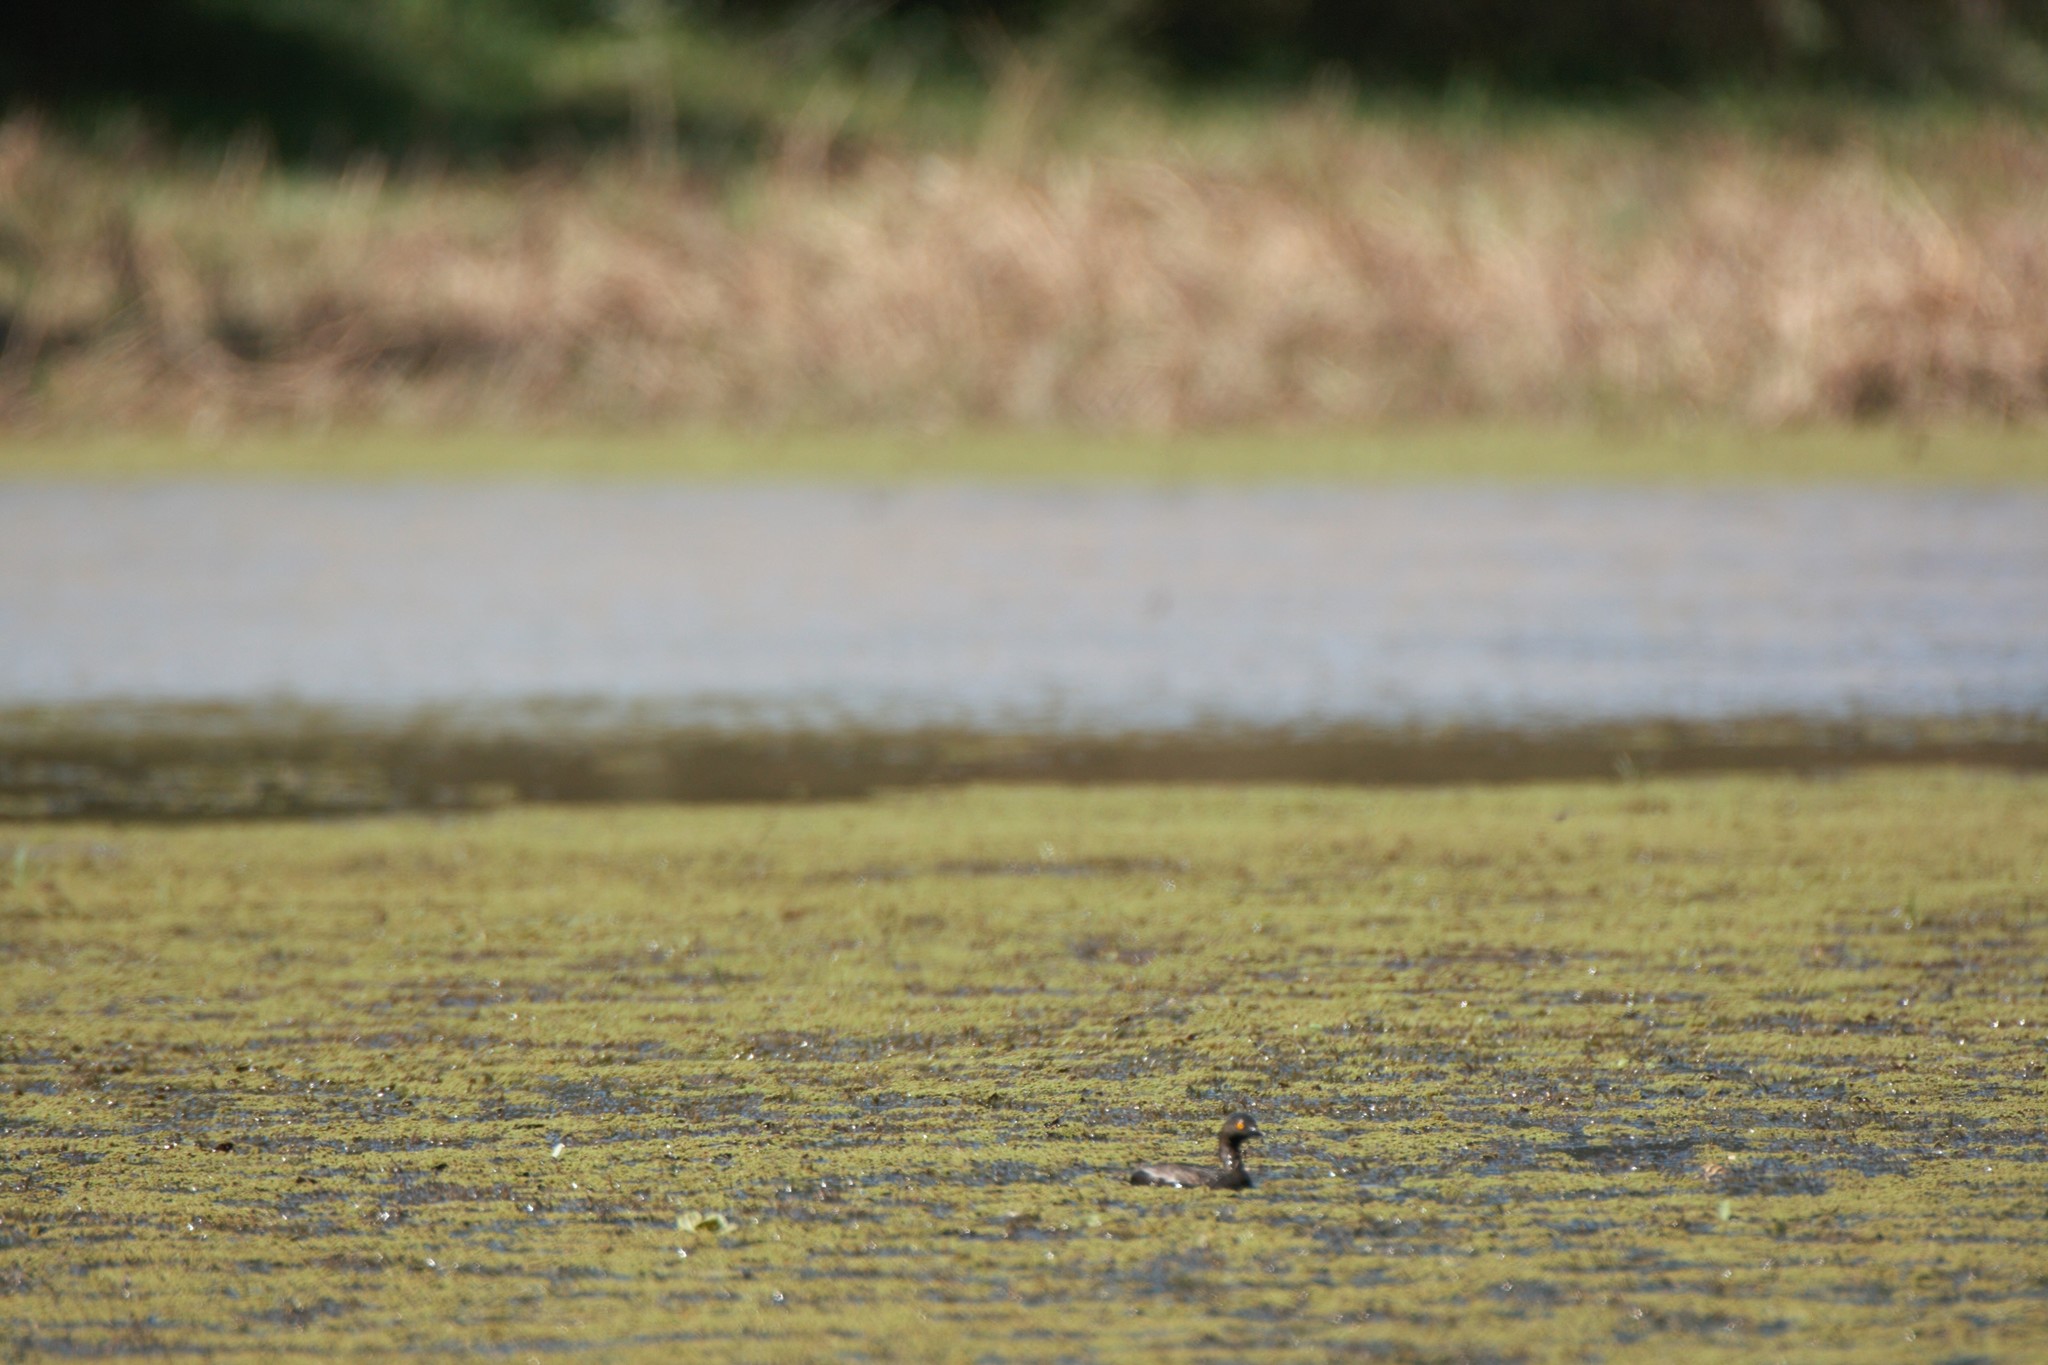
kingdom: Animalia
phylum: Chordata
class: Aves
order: Podicipediformes
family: Podicipedidae
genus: Tachybaptus
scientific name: Tachybaptus dominicus
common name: Least grebe
